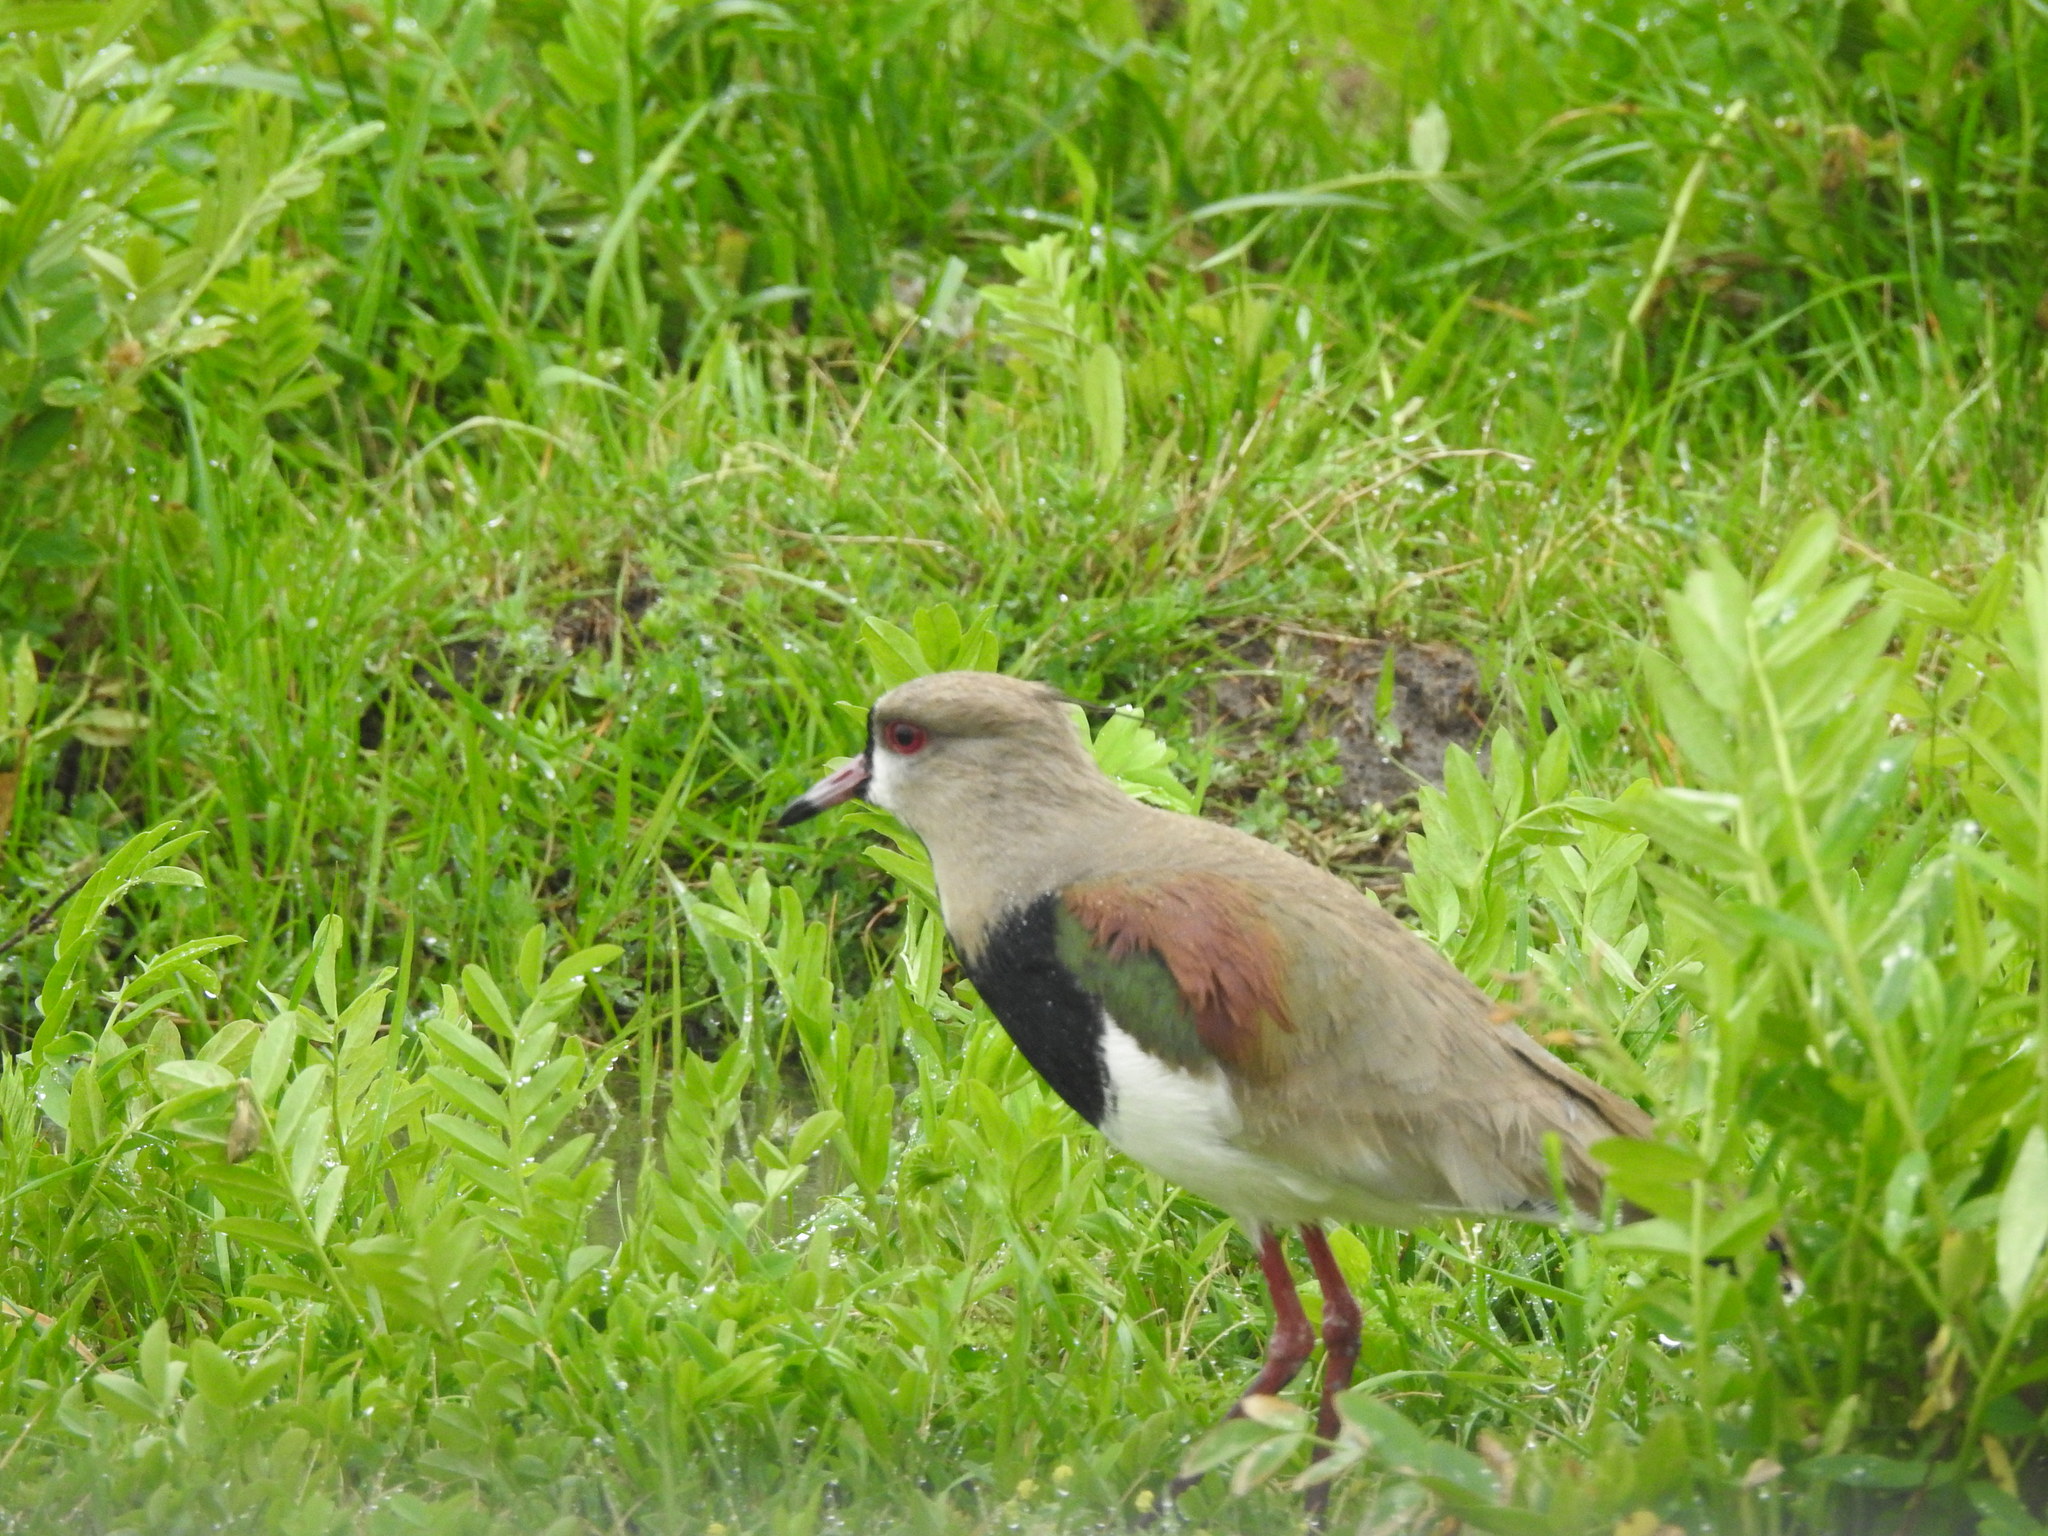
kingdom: Animalia
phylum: Chordata
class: Aves
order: Charadriiformes
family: Charadriidae
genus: Vanellus
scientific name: Vanellus chilensis
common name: Southern lapwing
